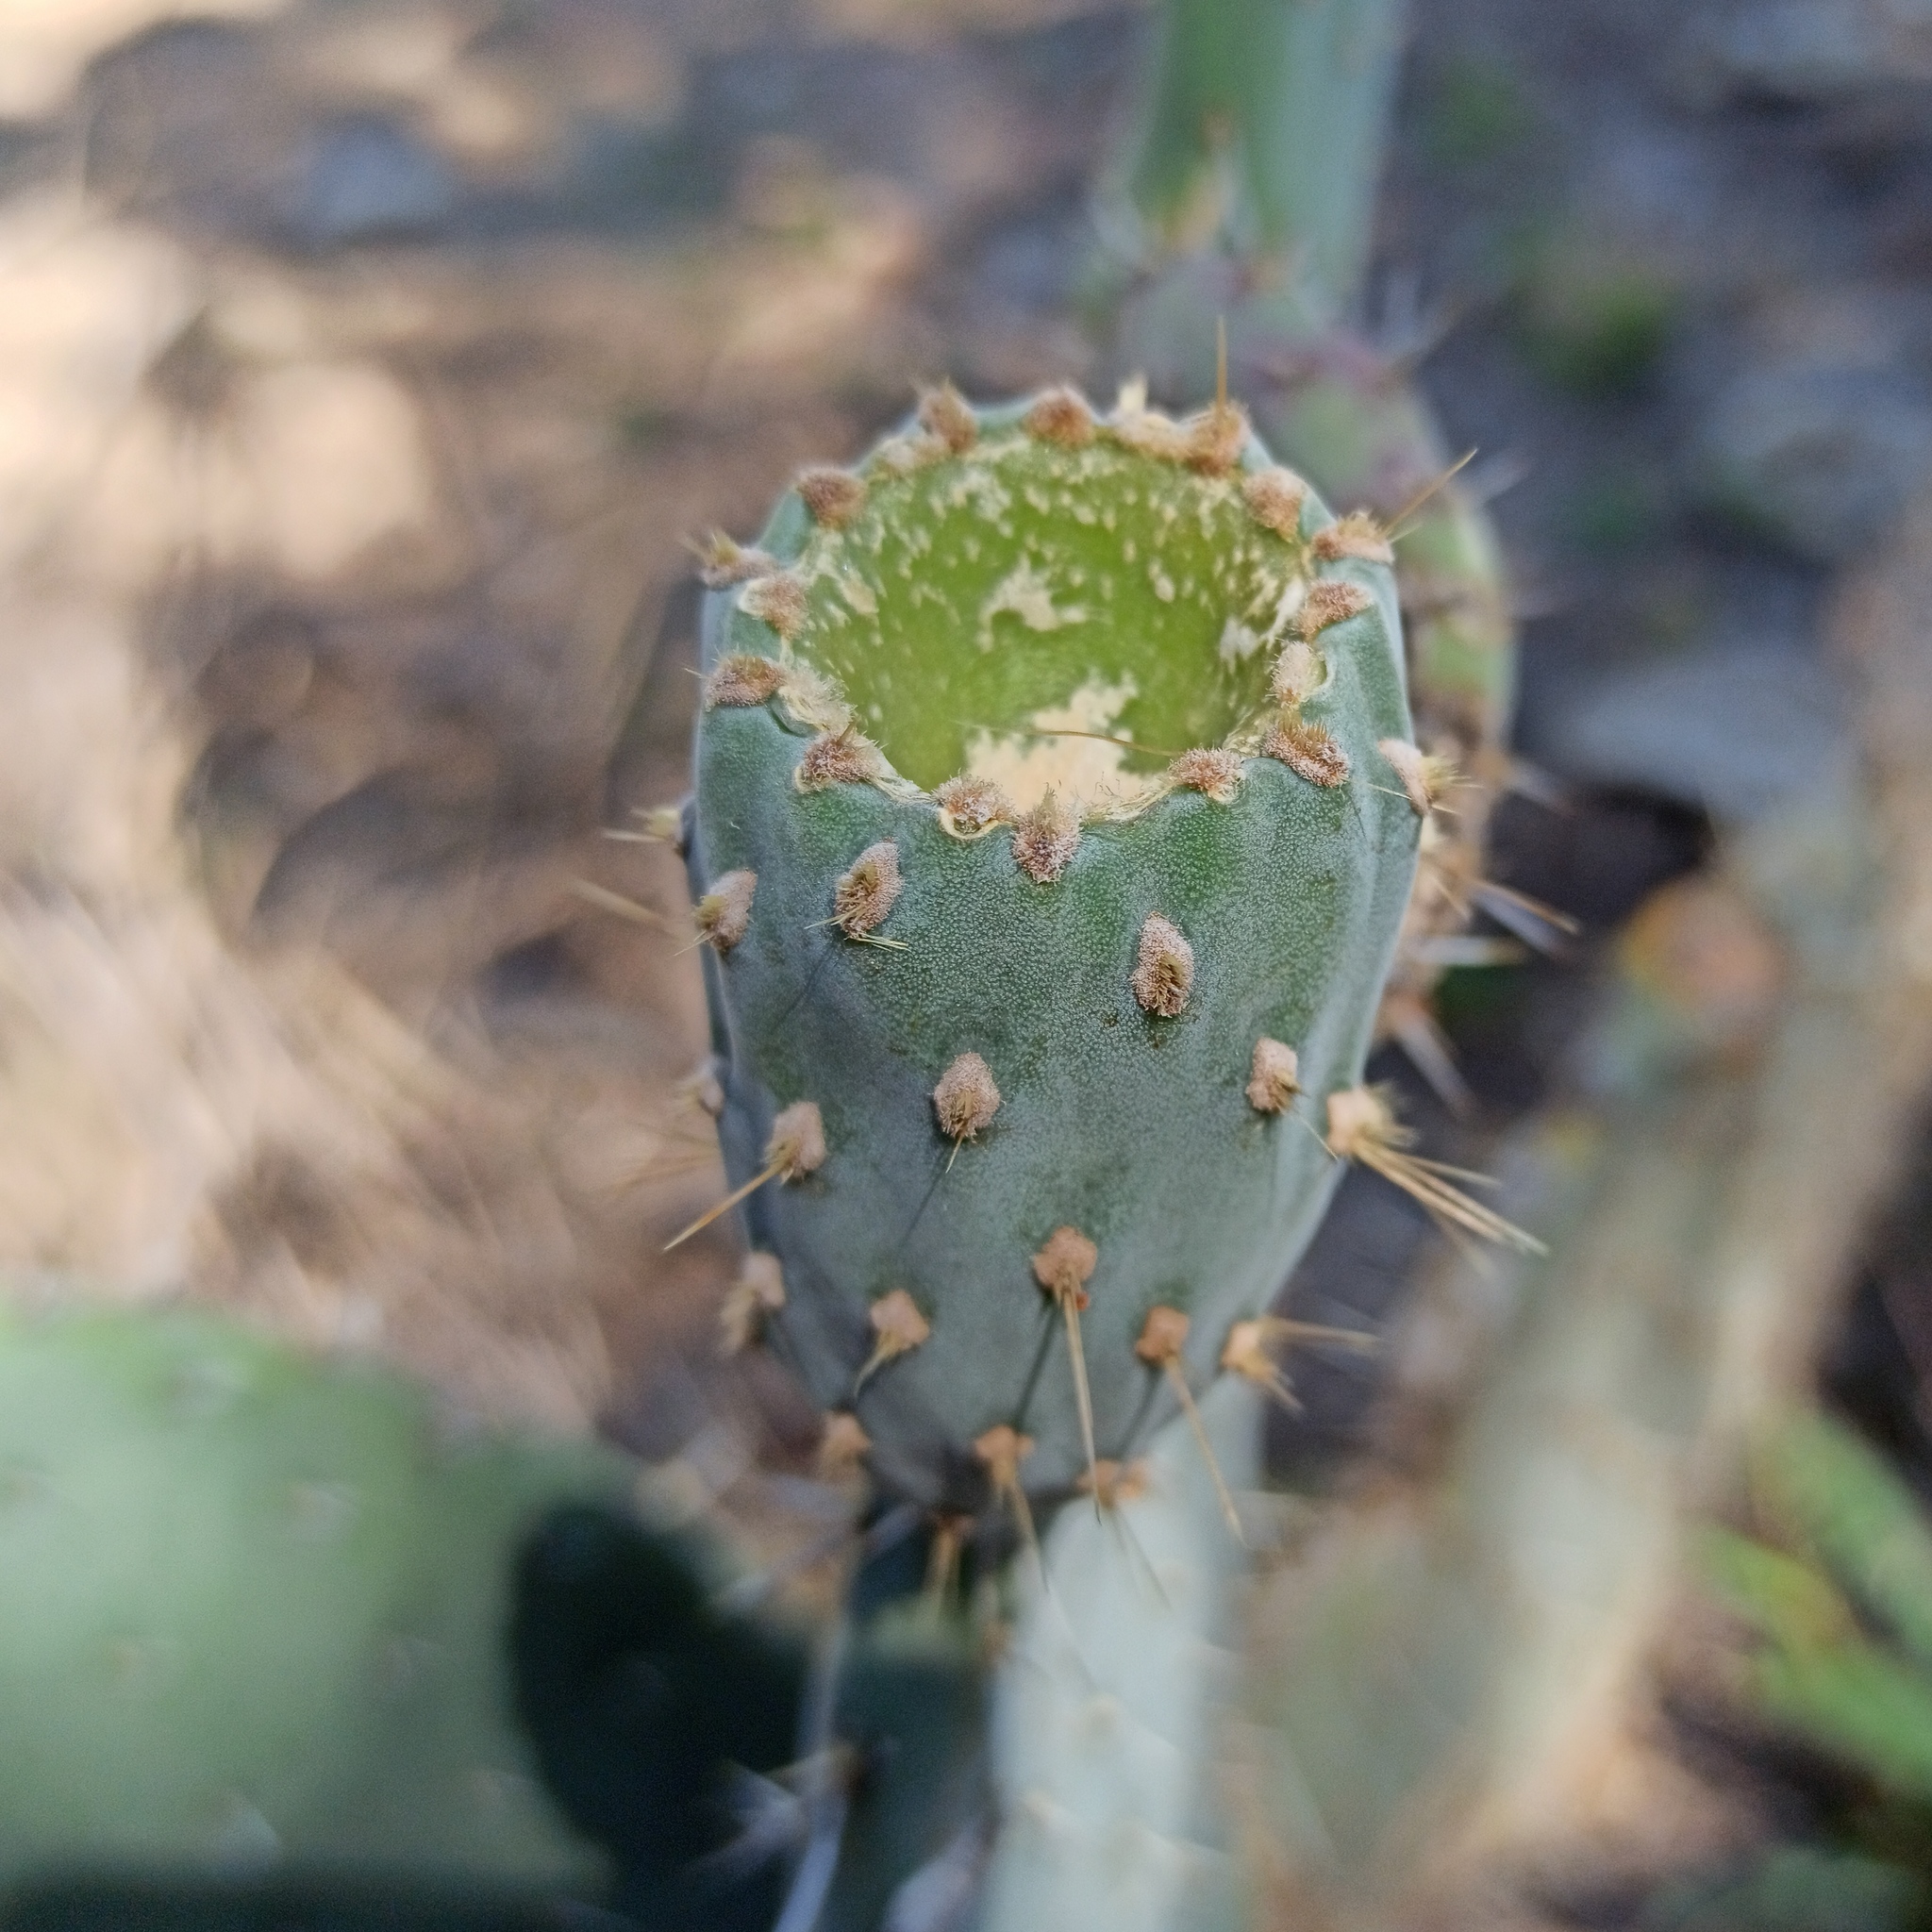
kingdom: Plantae
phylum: Tracheophyta
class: Magnoliopsida
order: Caryophyllales
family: Cactaceae
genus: Opuntia
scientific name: Opuntia lasiacantha
